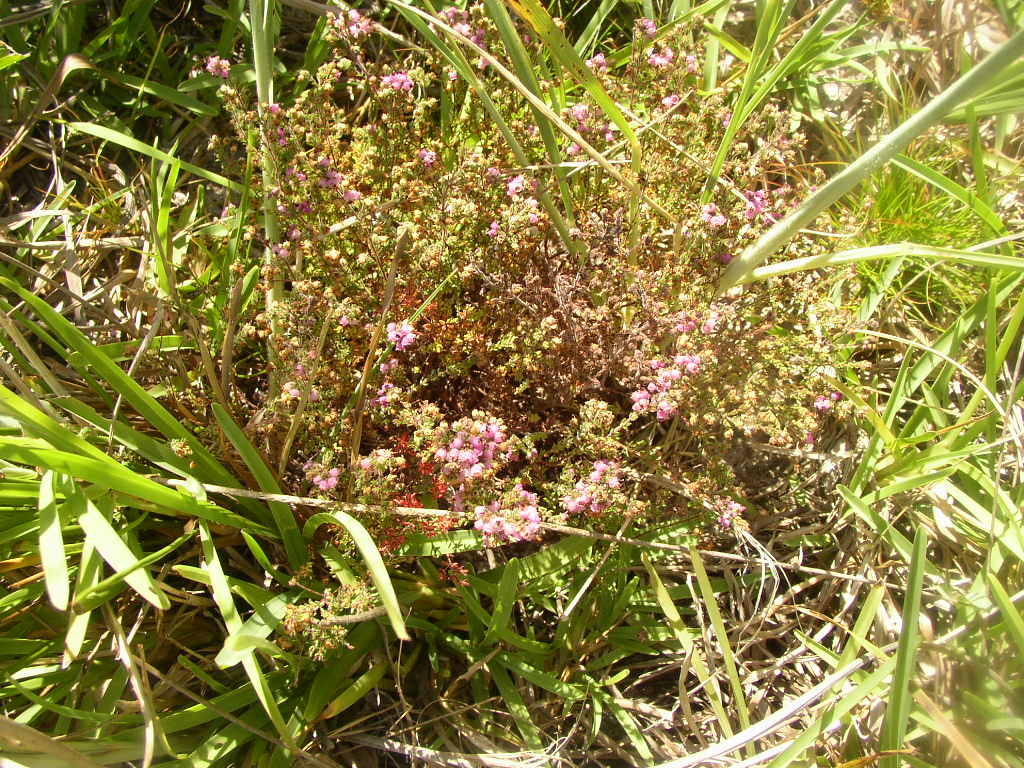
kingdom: Plantae
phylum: Tracheophyta
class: Magnoliopsida
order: Ericales
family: Ericaceae
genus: Erica
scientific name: Erica turgida
